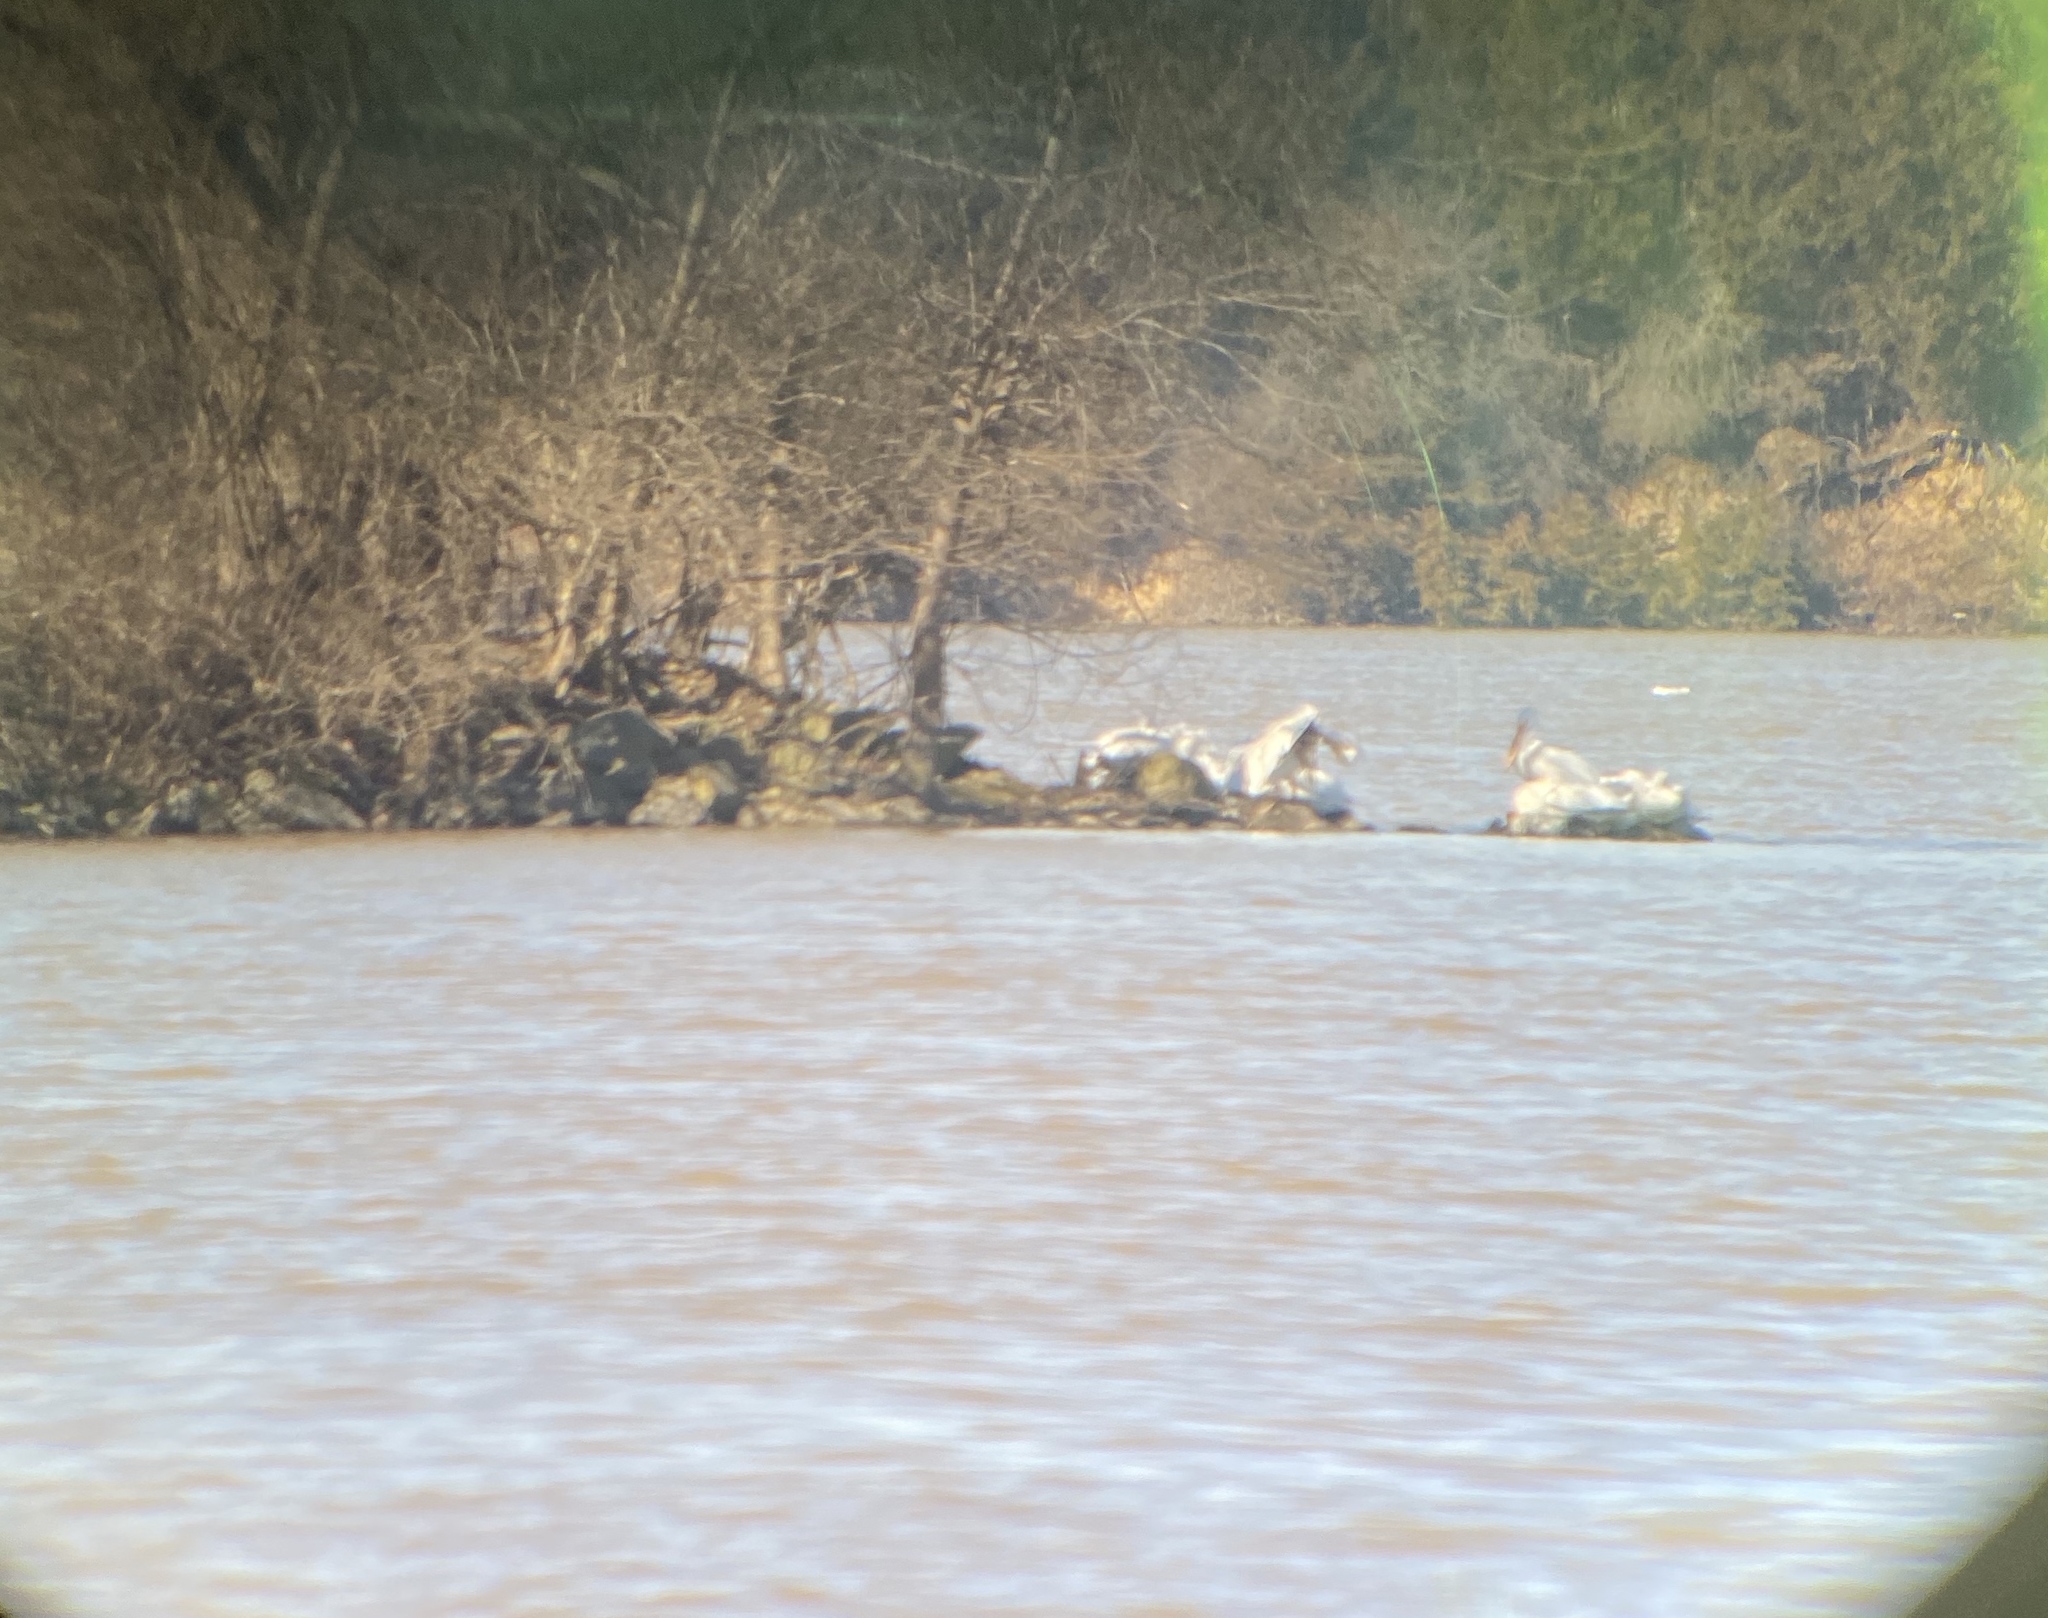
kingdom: Animalia
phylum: Chordata
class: Aves
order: Pelecaniformes
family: Pelecanidae
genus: Pelecanus
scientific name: Pelecanus erythrorhynchos
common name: American white pelican
